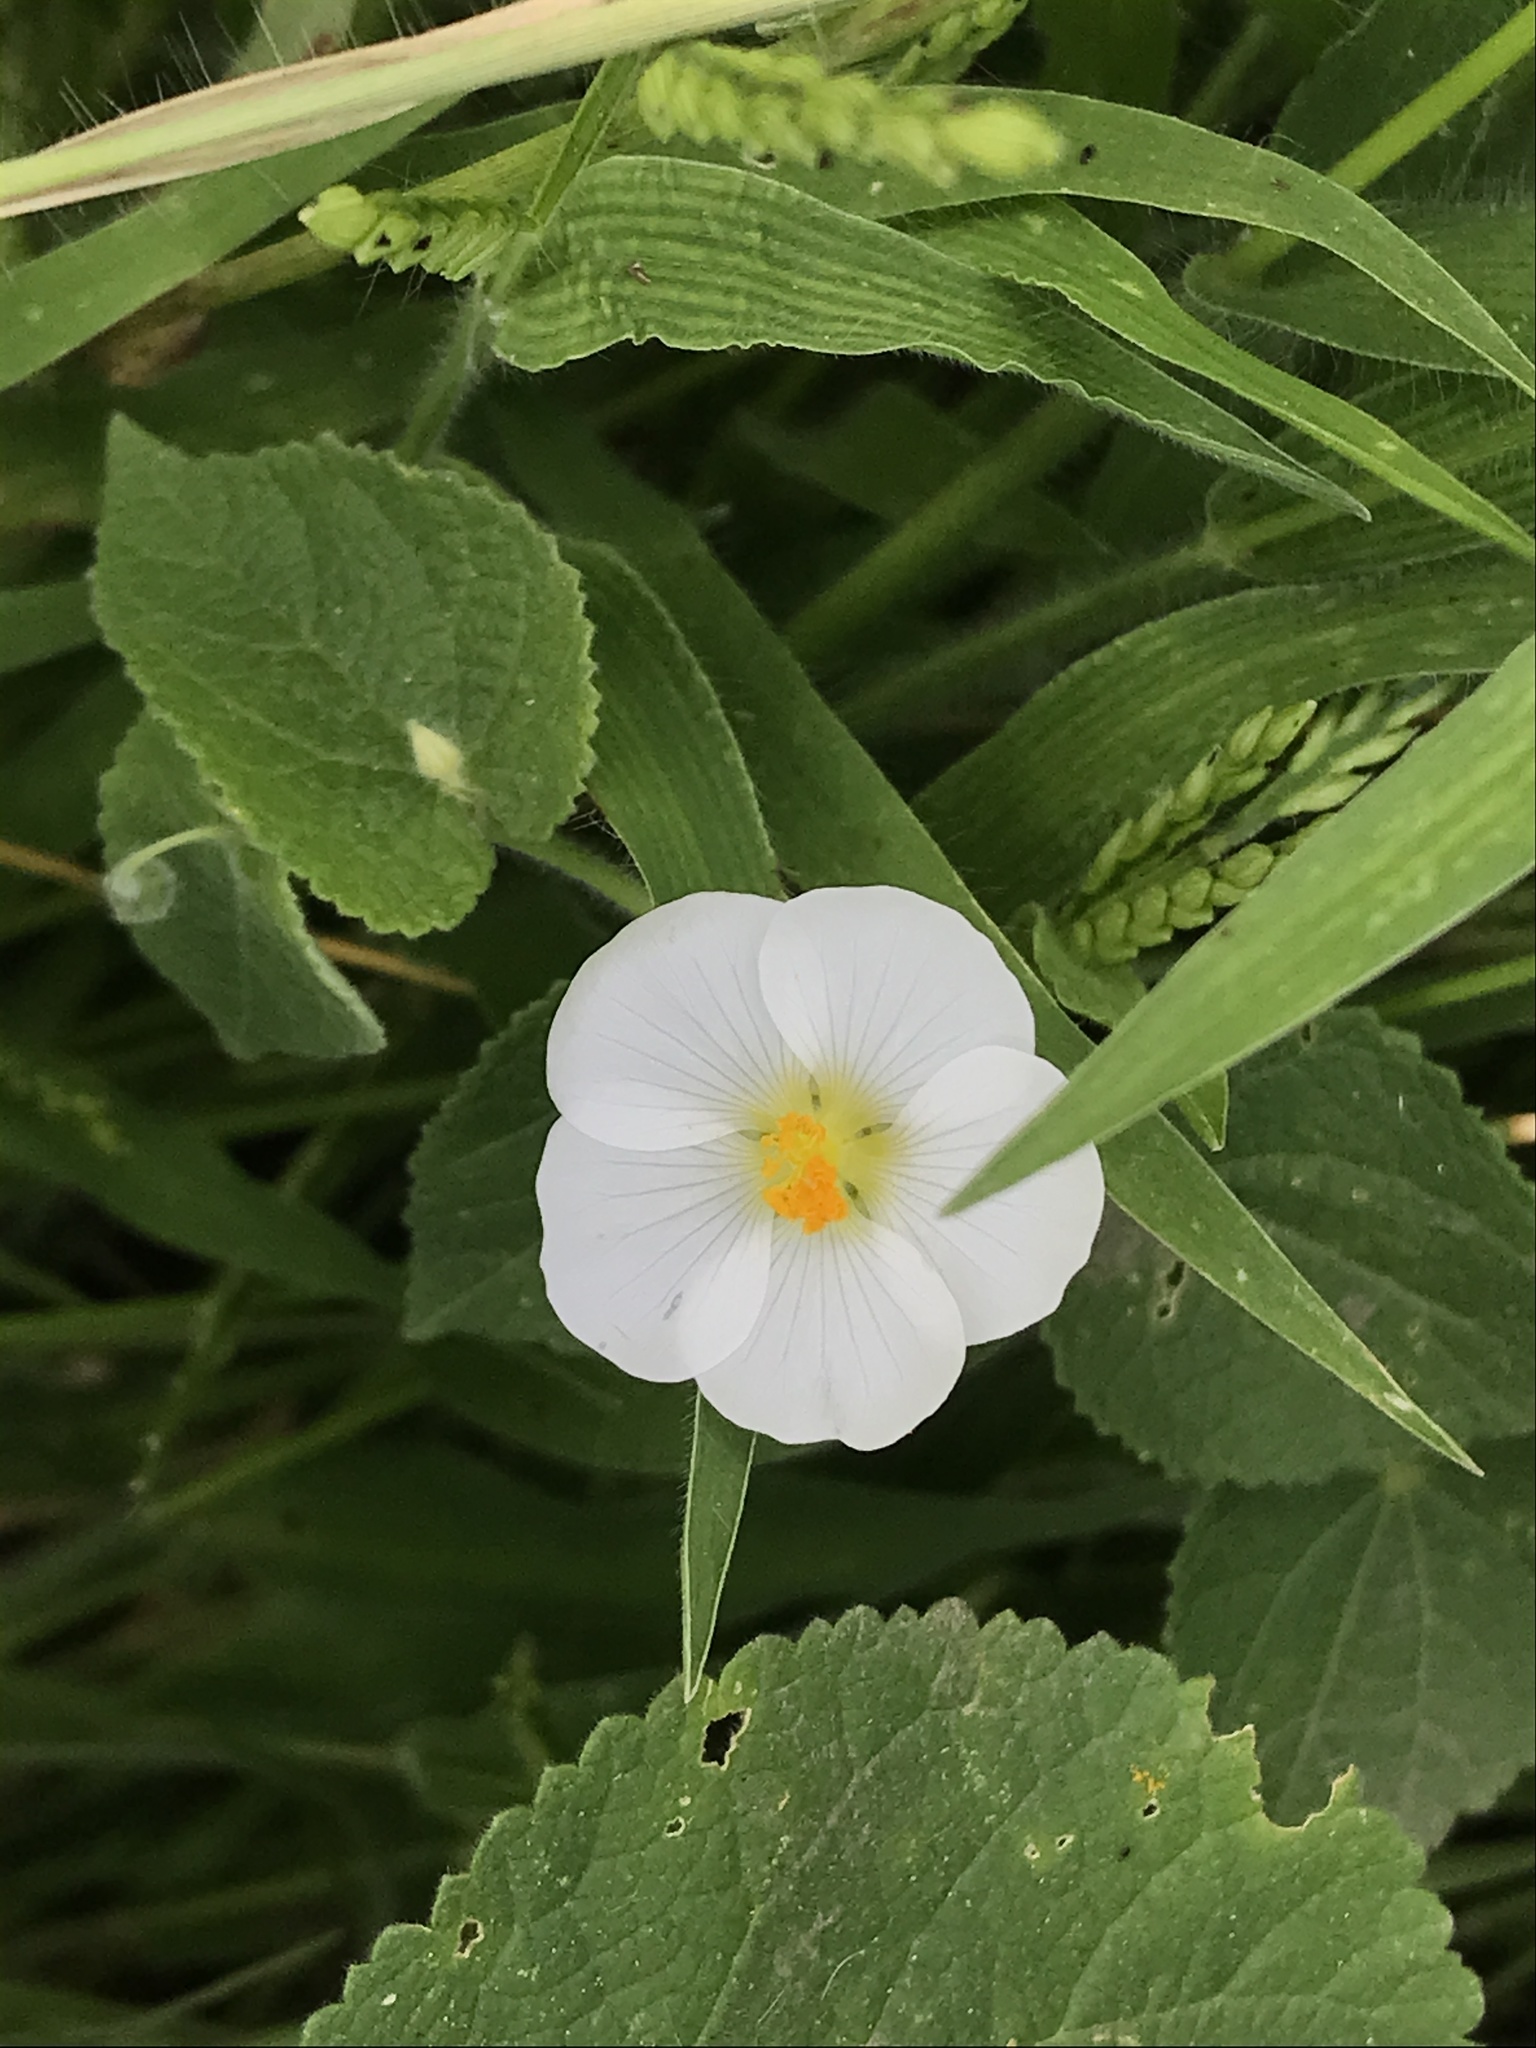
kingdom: Plantae
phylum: Tracheophyta
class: Magnoliopsida
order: Malvales
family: Malvaceae
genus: Herissantia
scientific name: Herissantia crispa
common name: Bladdermallow
